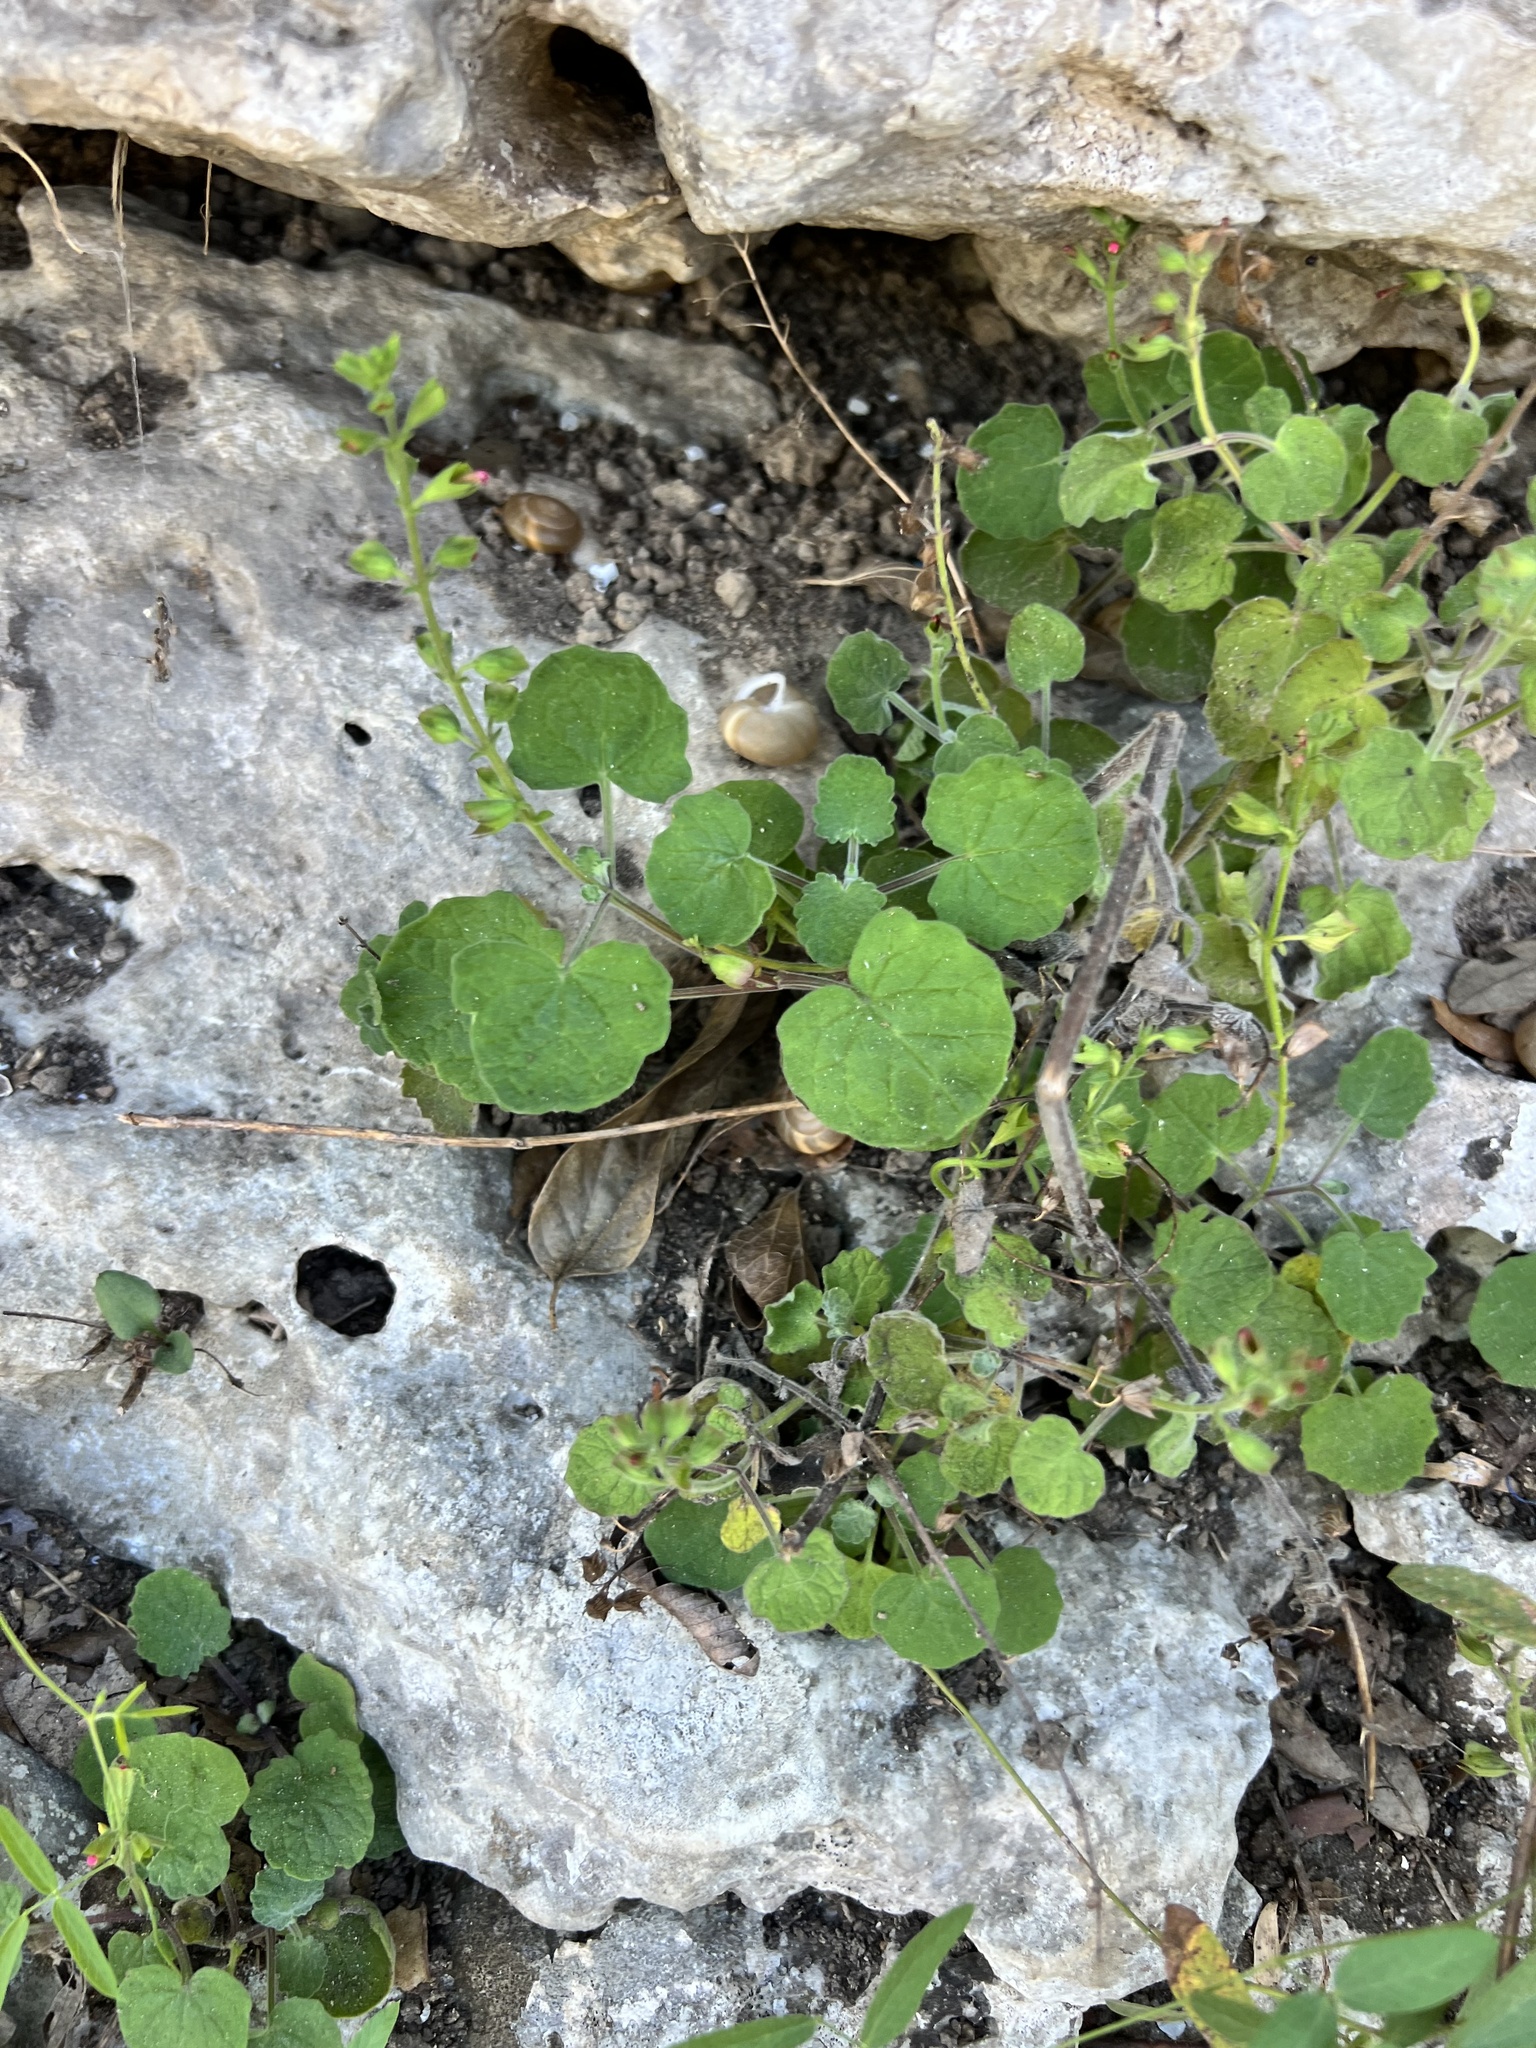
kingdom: Plantae
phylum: Tracheophyta
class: Magnoliopsida
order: Lamiales
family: Lamiaceae
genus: Salvia
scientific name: Salvia roemeriana
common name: Cedar sage
